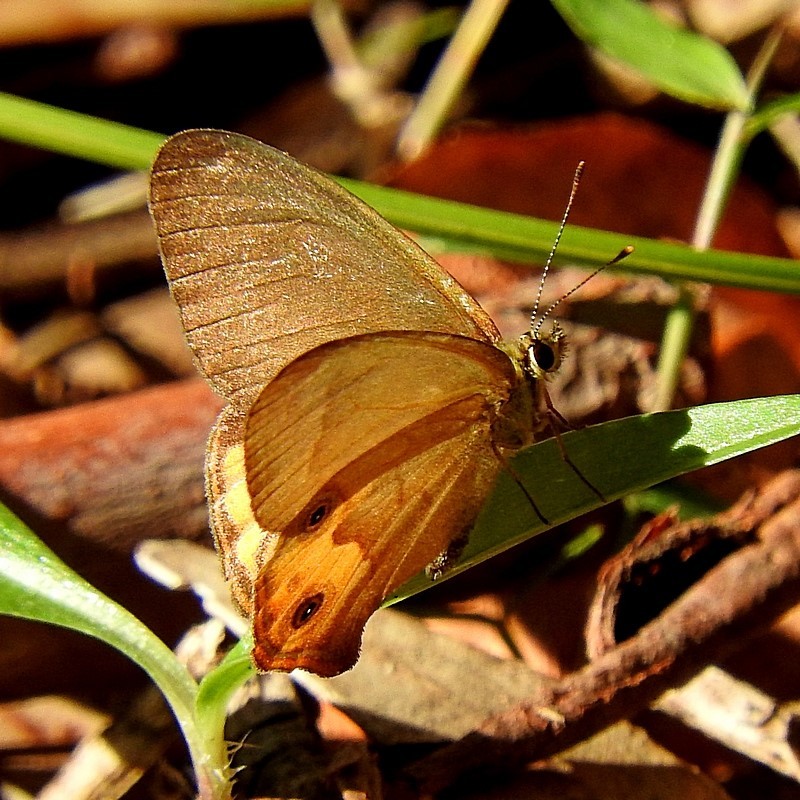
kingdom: Animalia
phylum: Arthropoda
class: Insecta
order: Lepidoptera
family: Nymphalidae
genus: Hypocysta
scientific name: Hypocysta metirius
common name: Brown ringlet
